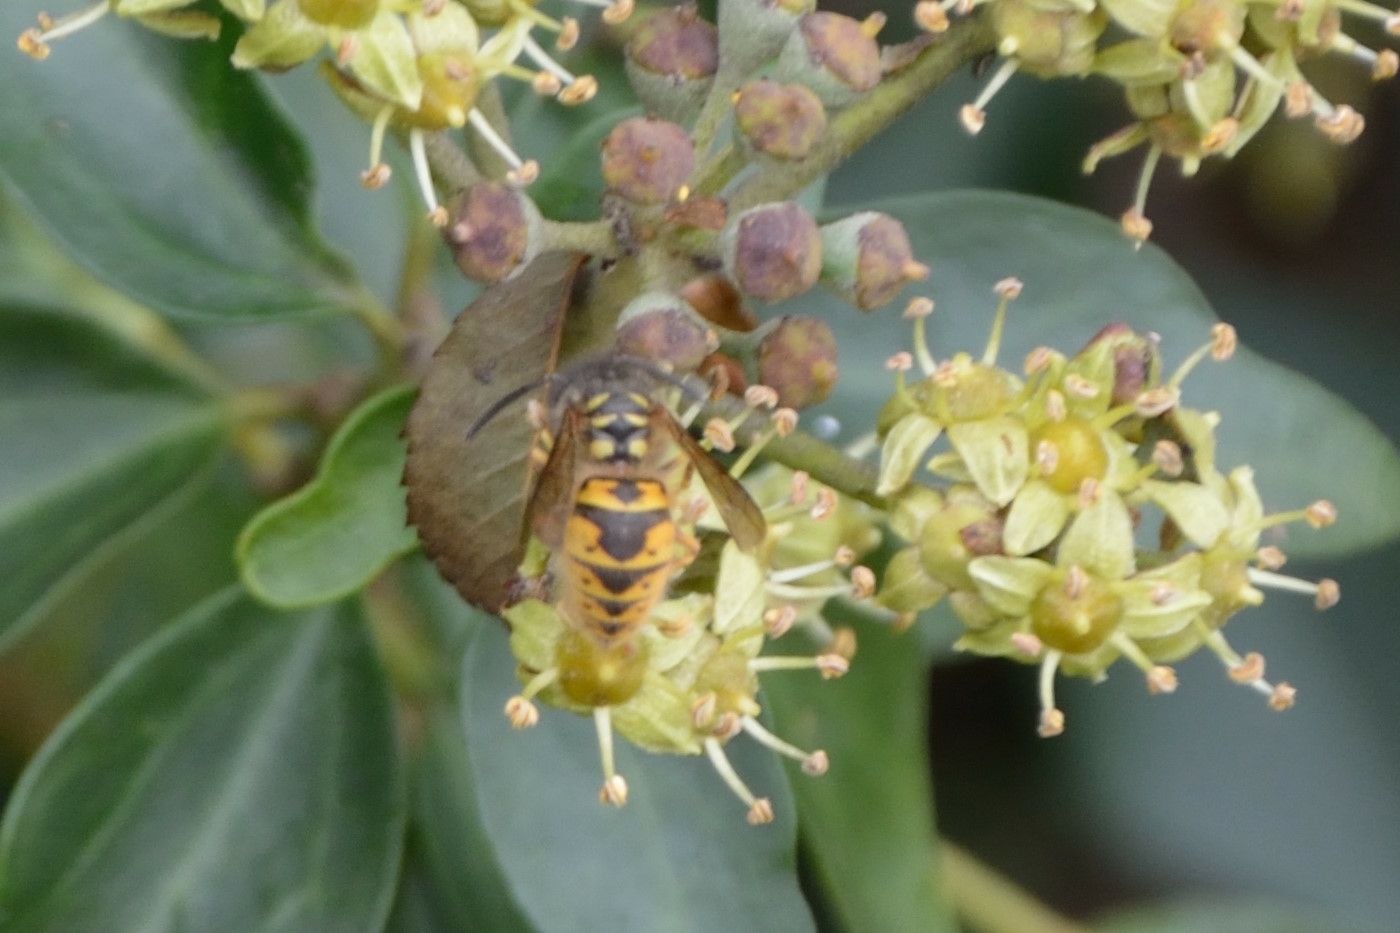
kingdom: Animalia
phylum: Arthropoda
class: Insecta
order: Hymenoptera
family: Vespidae
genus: Vespula
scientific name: Vespula vulgaris
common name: Common wasp
